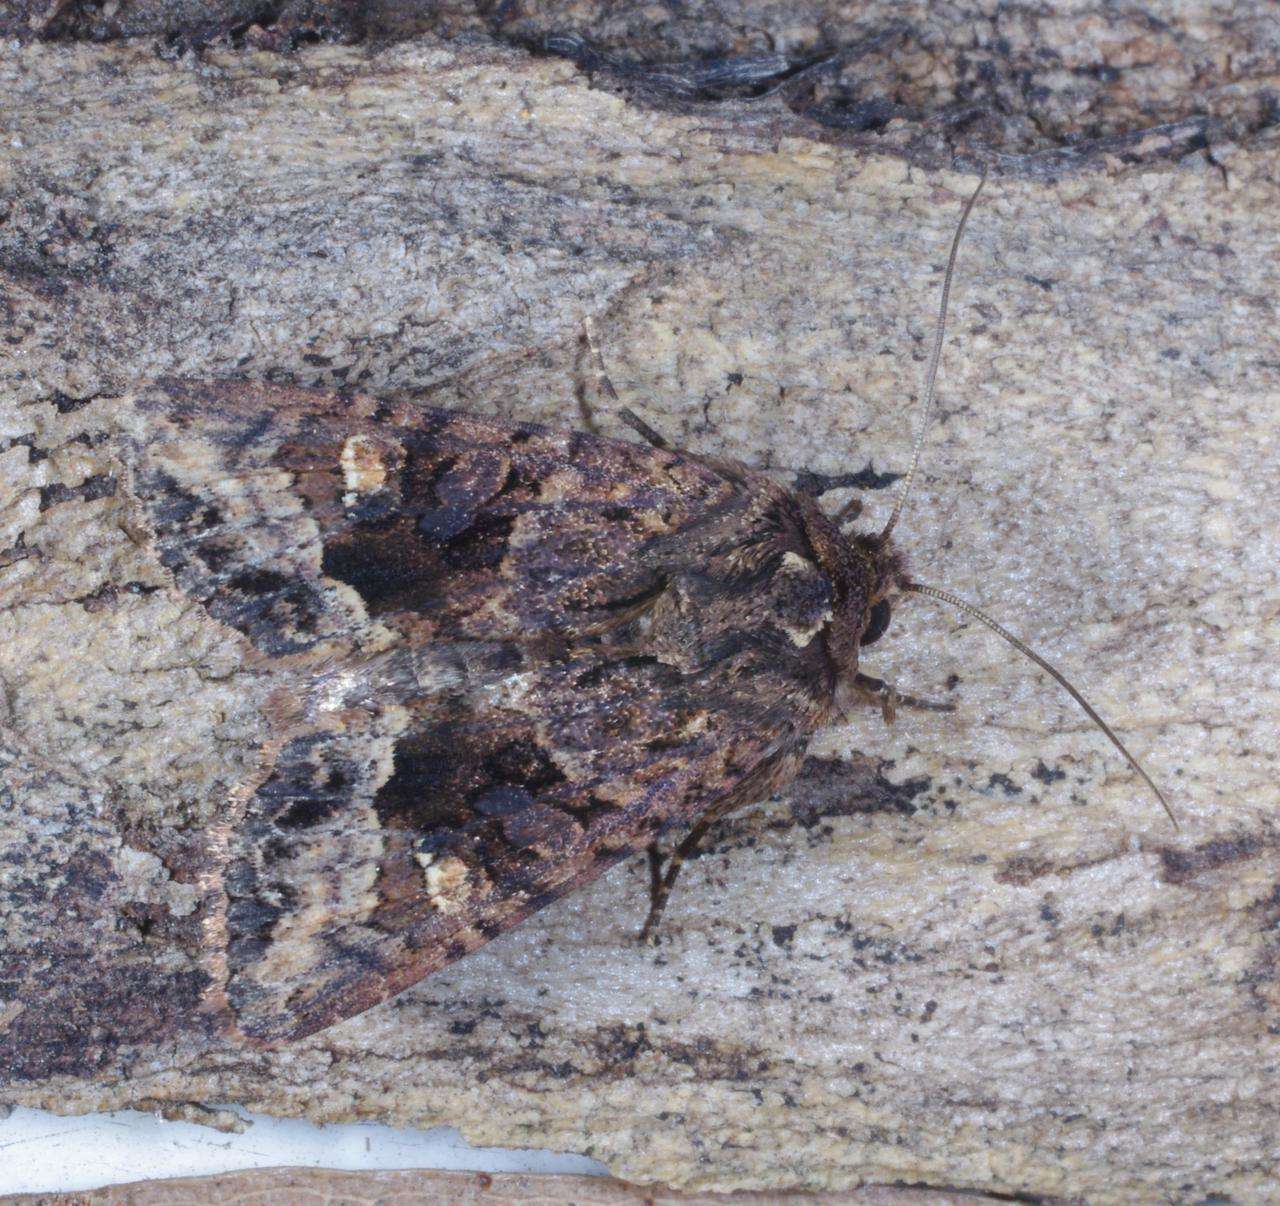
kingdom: Animalia
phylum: Arthropoda
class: Insecta
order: Lepidoptera
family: Noctuidae
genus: Neumichtis
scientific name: Neumichtis saliaris
